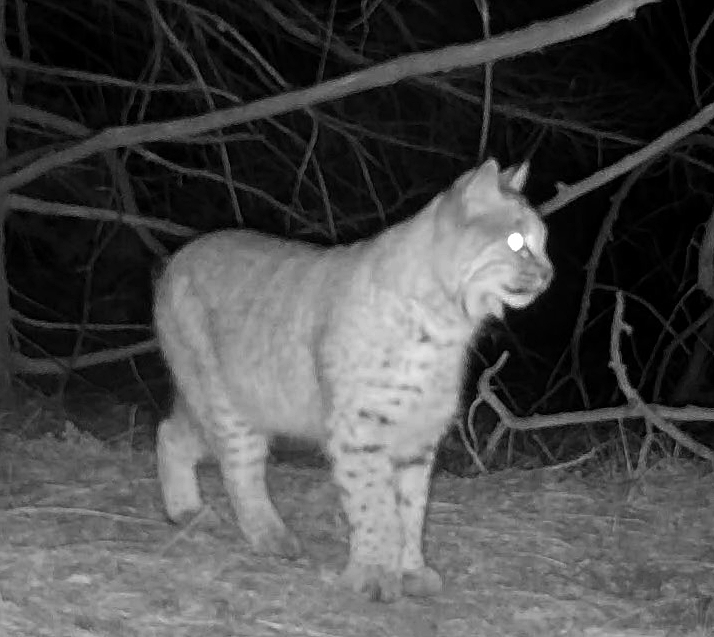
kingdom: Animalia
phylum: Chordata
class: Mammalia
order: Carnivora
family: Felidae
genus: Lynx
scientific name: Lynx rufus
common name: Bobcat
